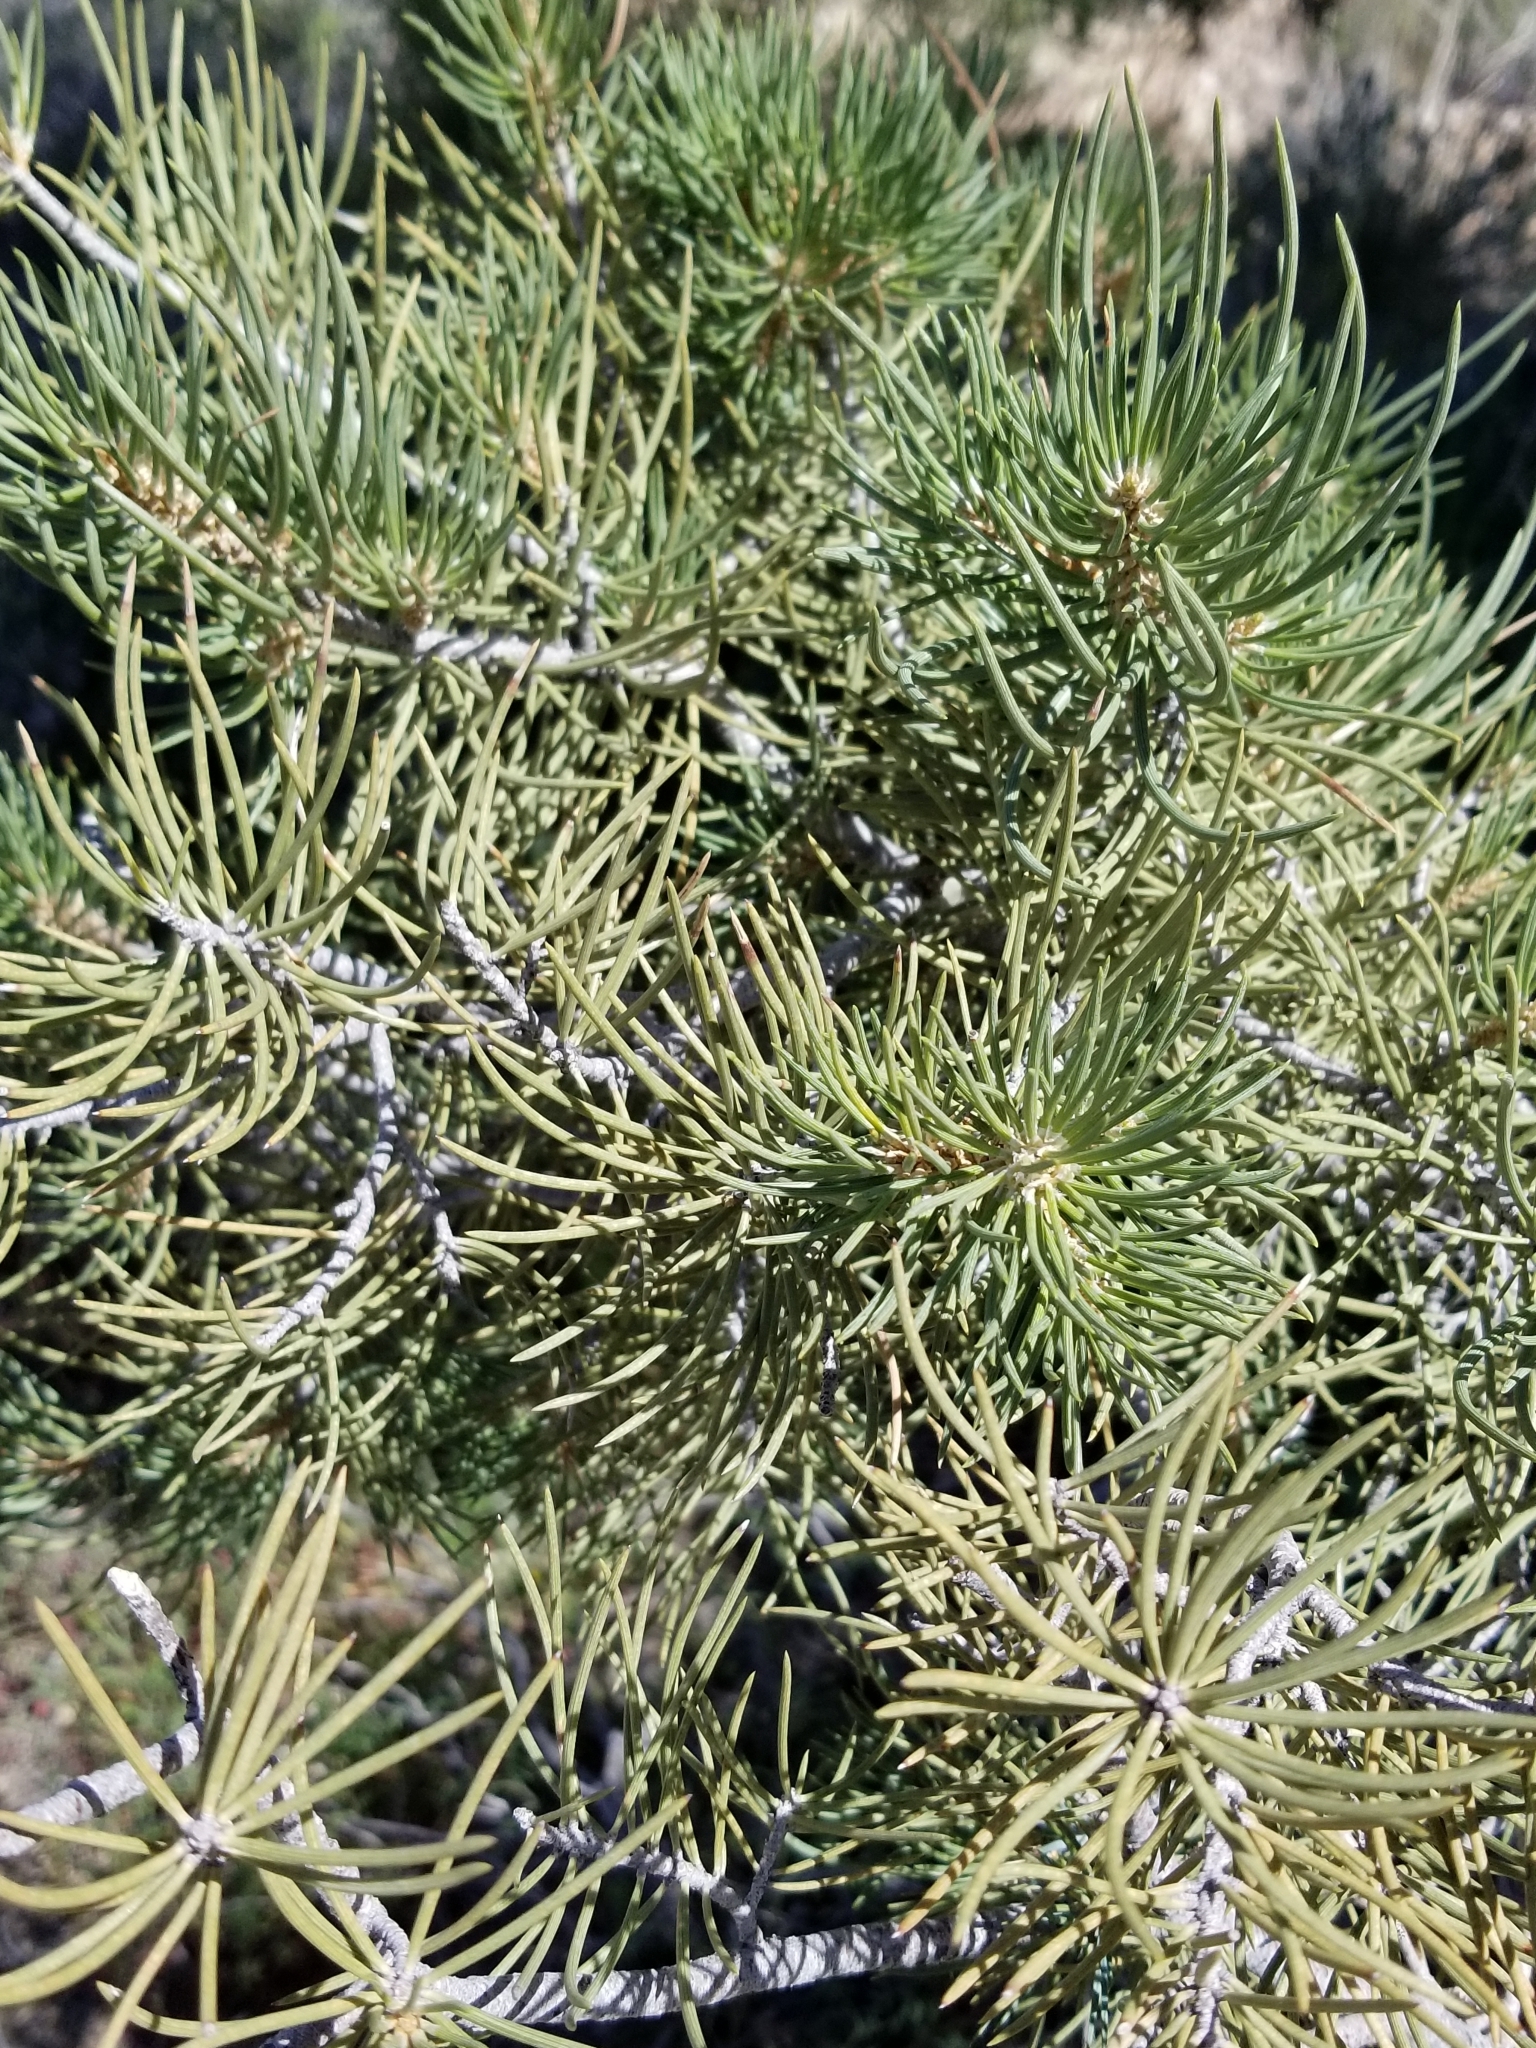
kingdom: Plantae
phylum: Tracheophyta
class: Pinopsida
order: Pinales
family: Pinaceae
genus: Pinus
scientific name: Pinus monophylla
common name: One-leaved nut pine
